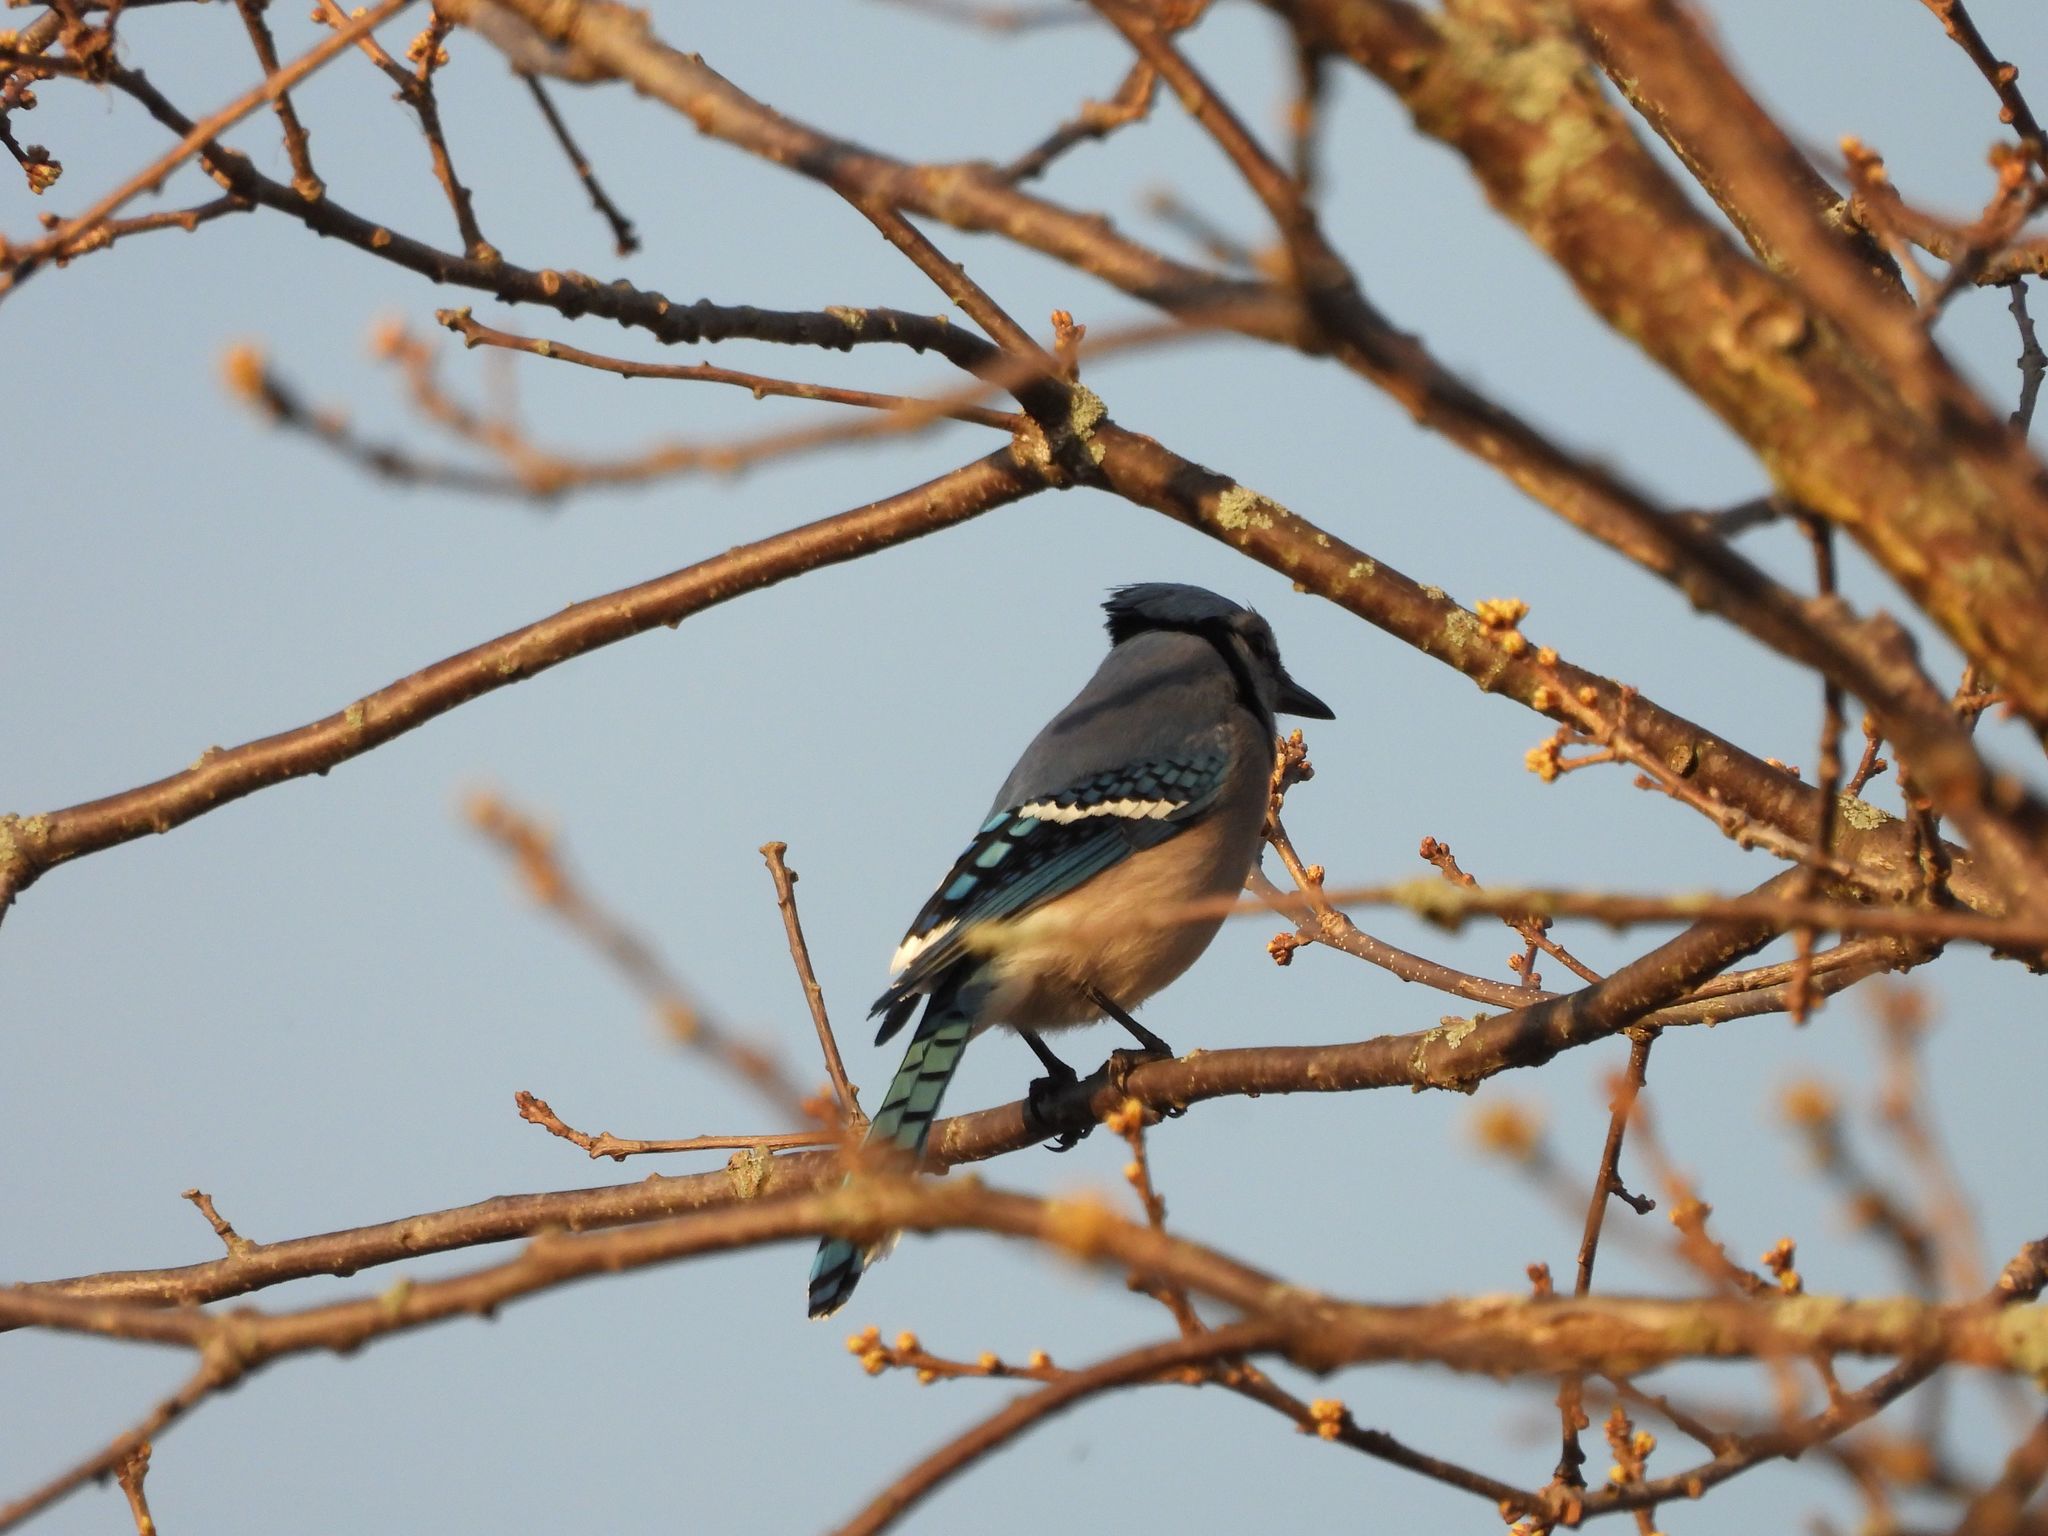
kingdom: Animalia
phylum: Chordata
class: Aves
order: Passeriformes
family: Corvidae
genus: Cyanocitta
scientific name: Cyanocitta cristata
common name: Blue jay
